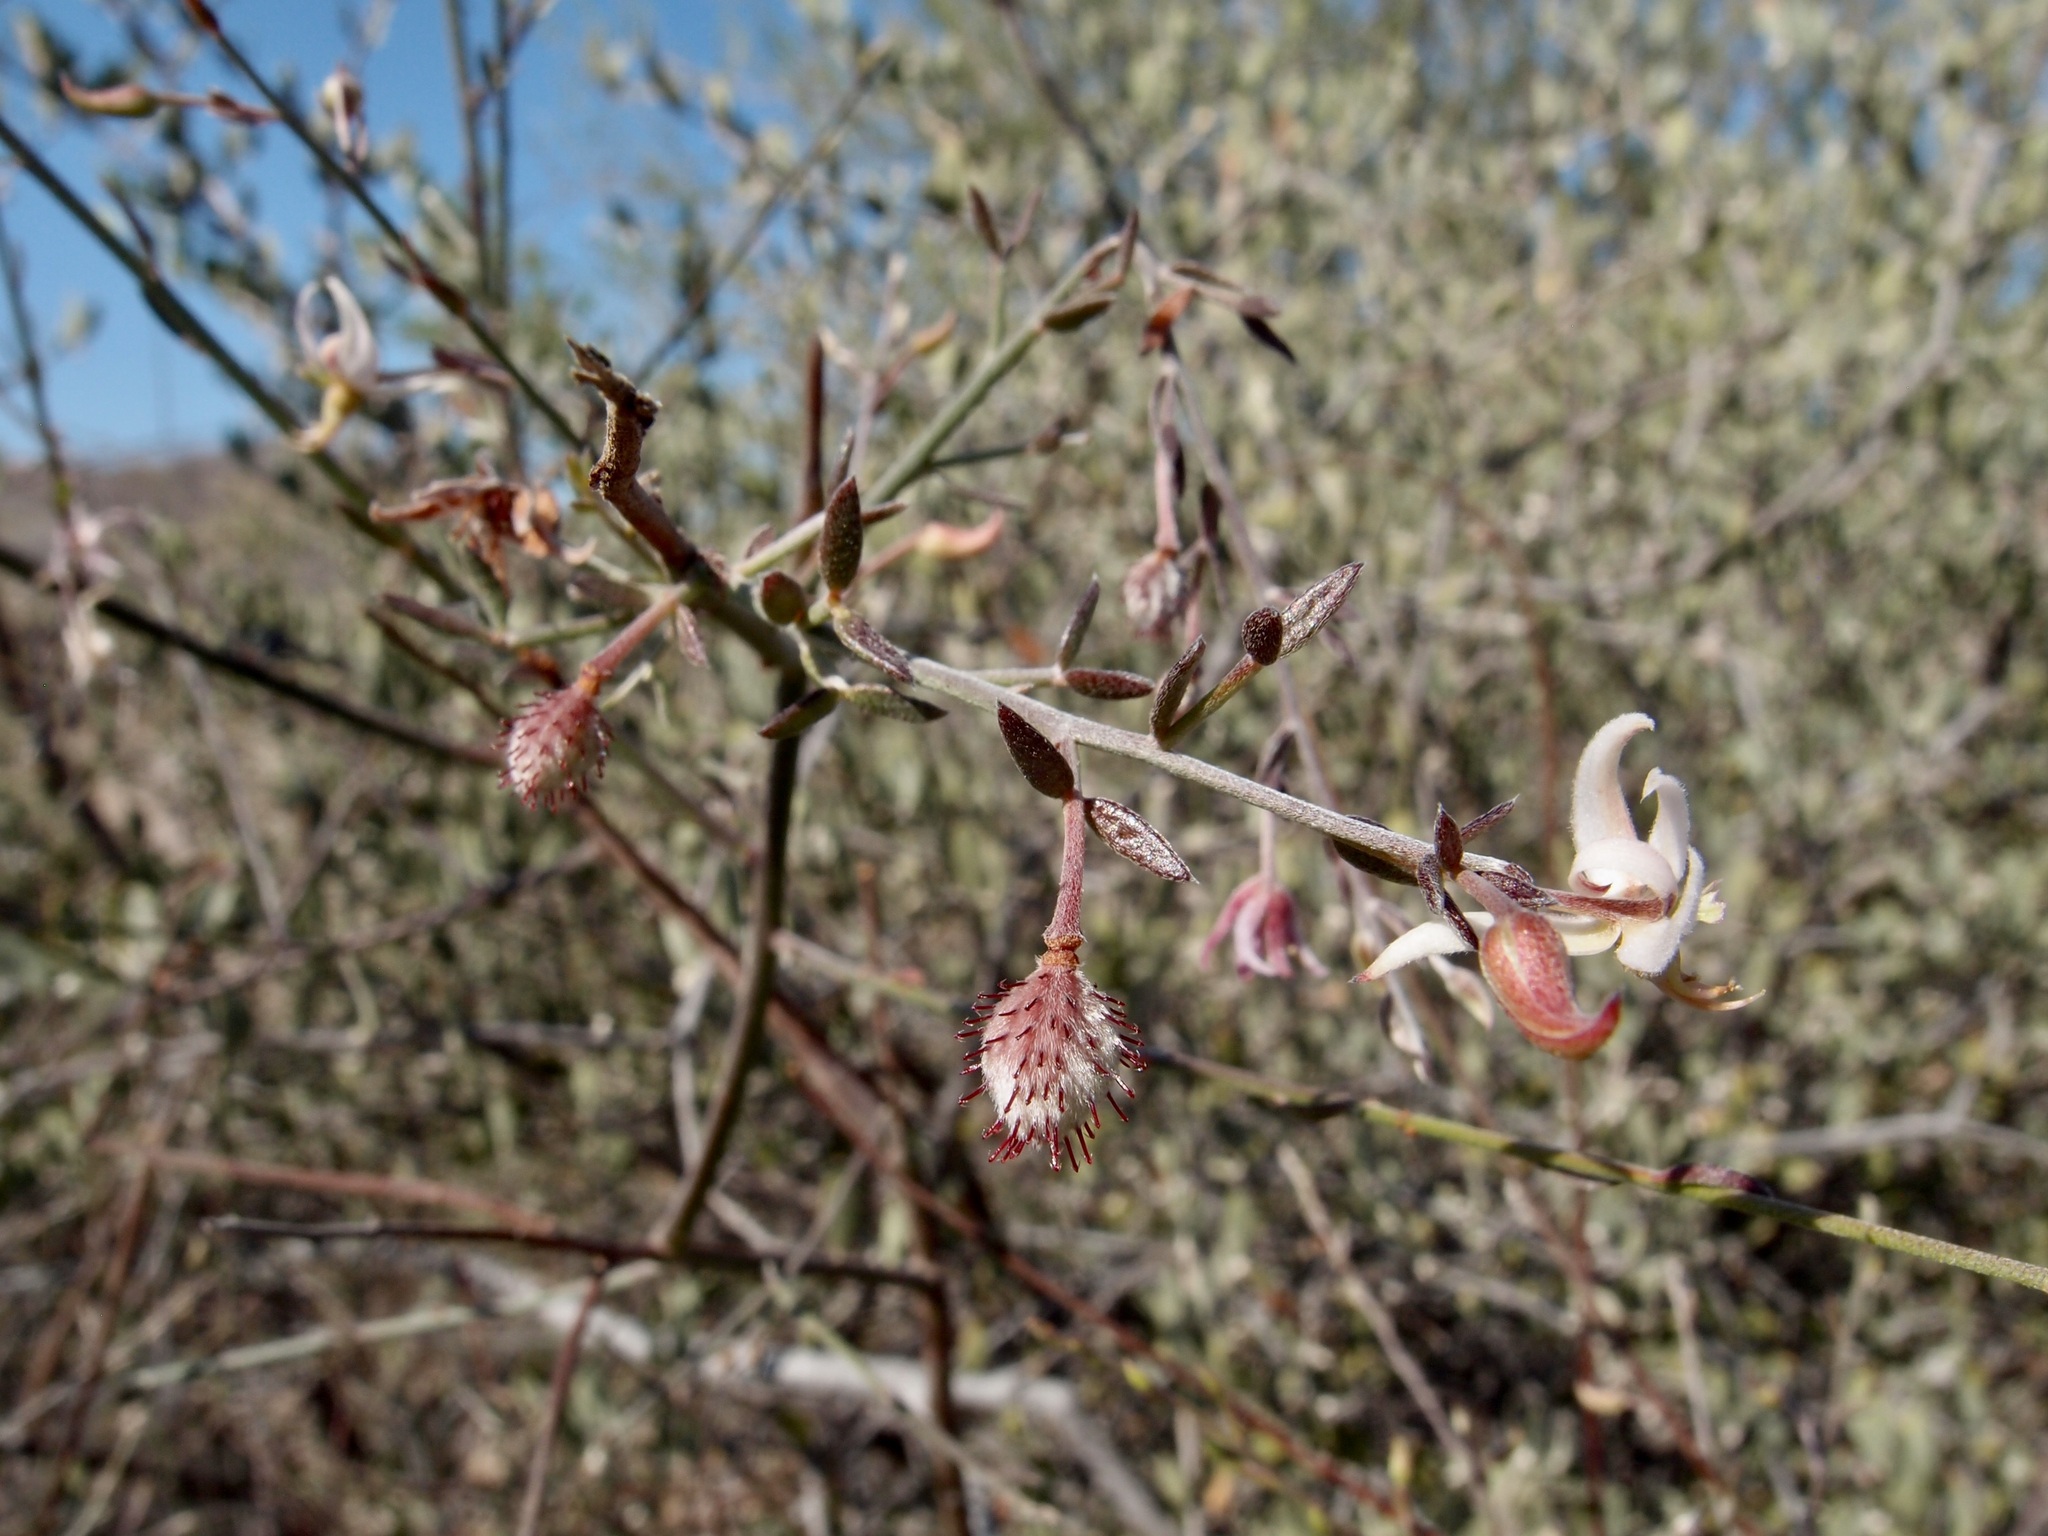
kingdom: Plantae
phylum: Tracheophyta
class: Magnoliopsida
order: Zygophyllales
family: Krameriaceae
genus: Krameria
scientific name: Krameria bicolor
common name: White ratany
